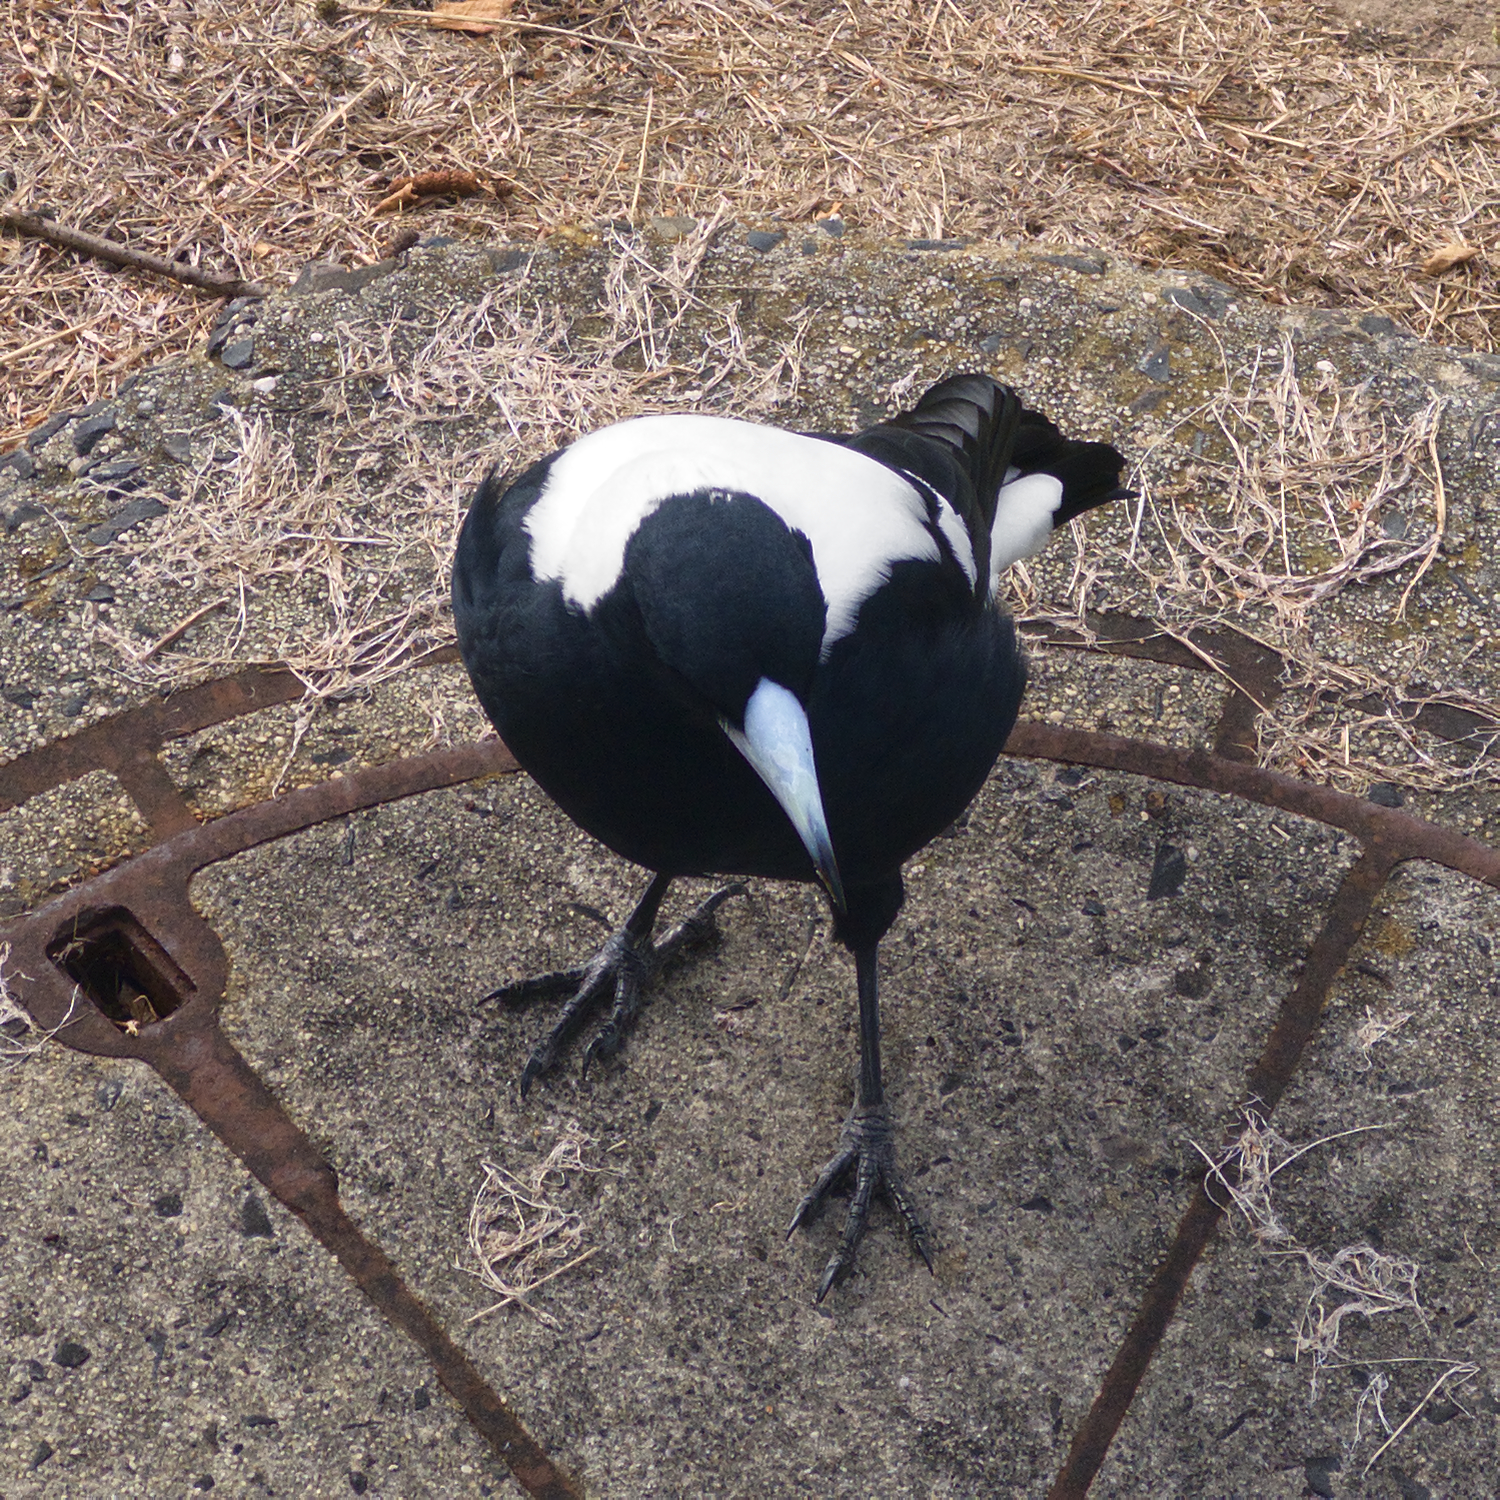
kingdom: Animalia
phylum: Chordata
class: Aves
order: Passeriformes
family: Cracticidae
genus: Gymnorhina
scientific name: Gymnorhina tibicen
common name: Australian magpie
